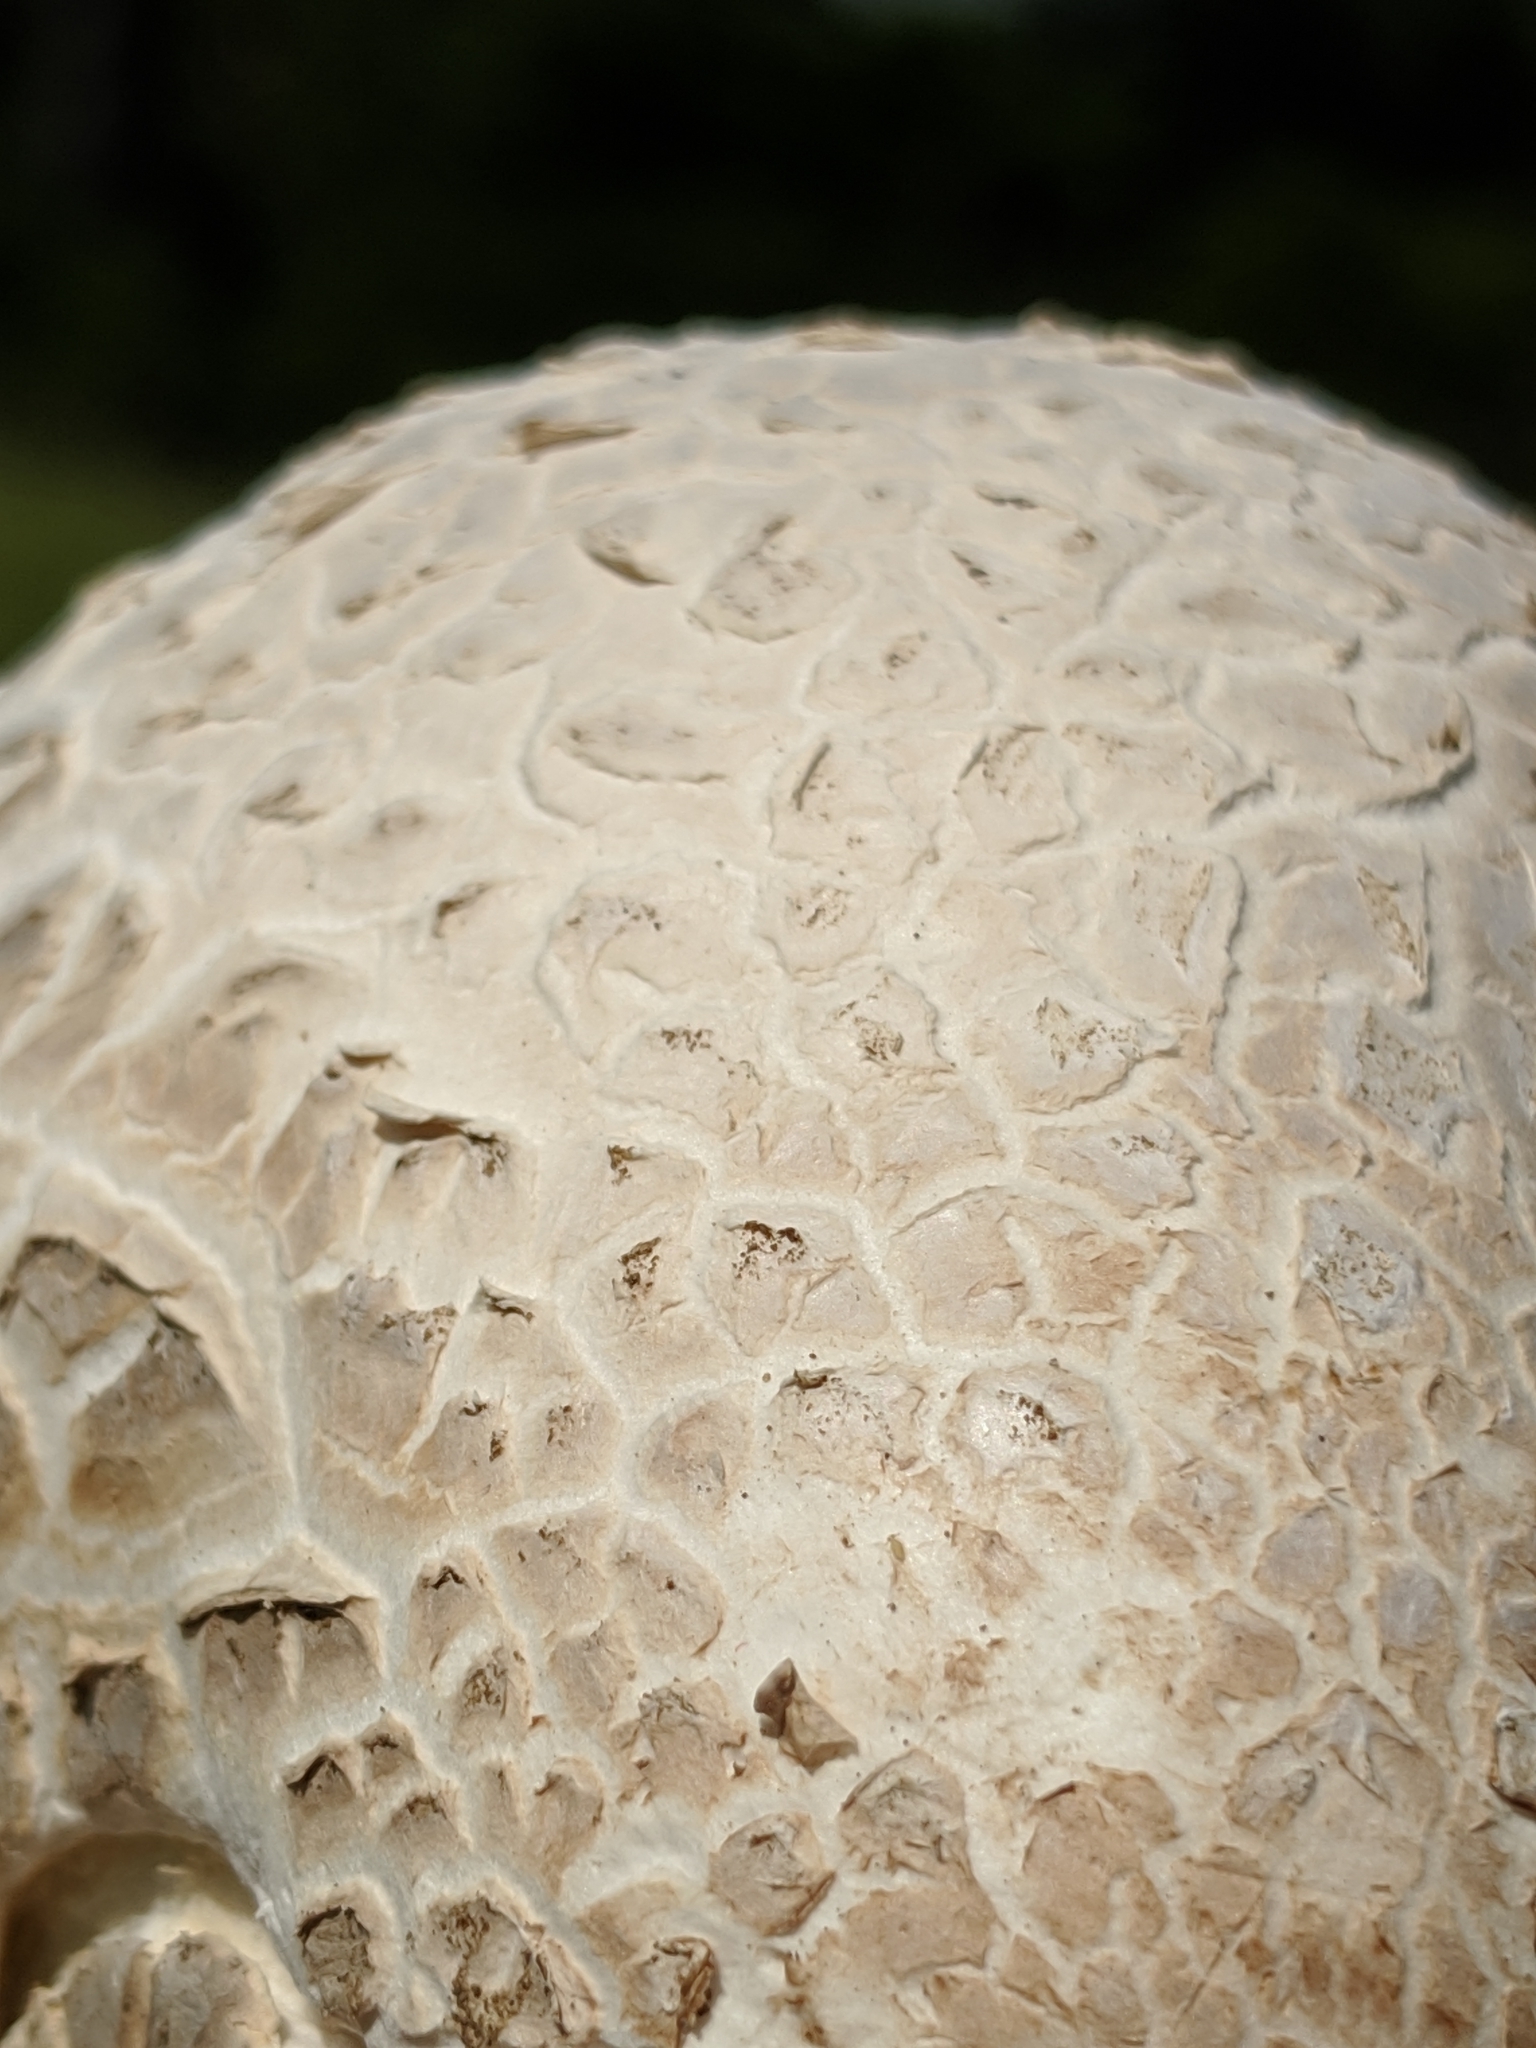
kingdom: Fungi
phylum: Basidiomycota
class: Agaricomycetes
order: Agaricales
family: Lycoperdaceae
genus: Calvatia
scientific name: Calvatia booniana
